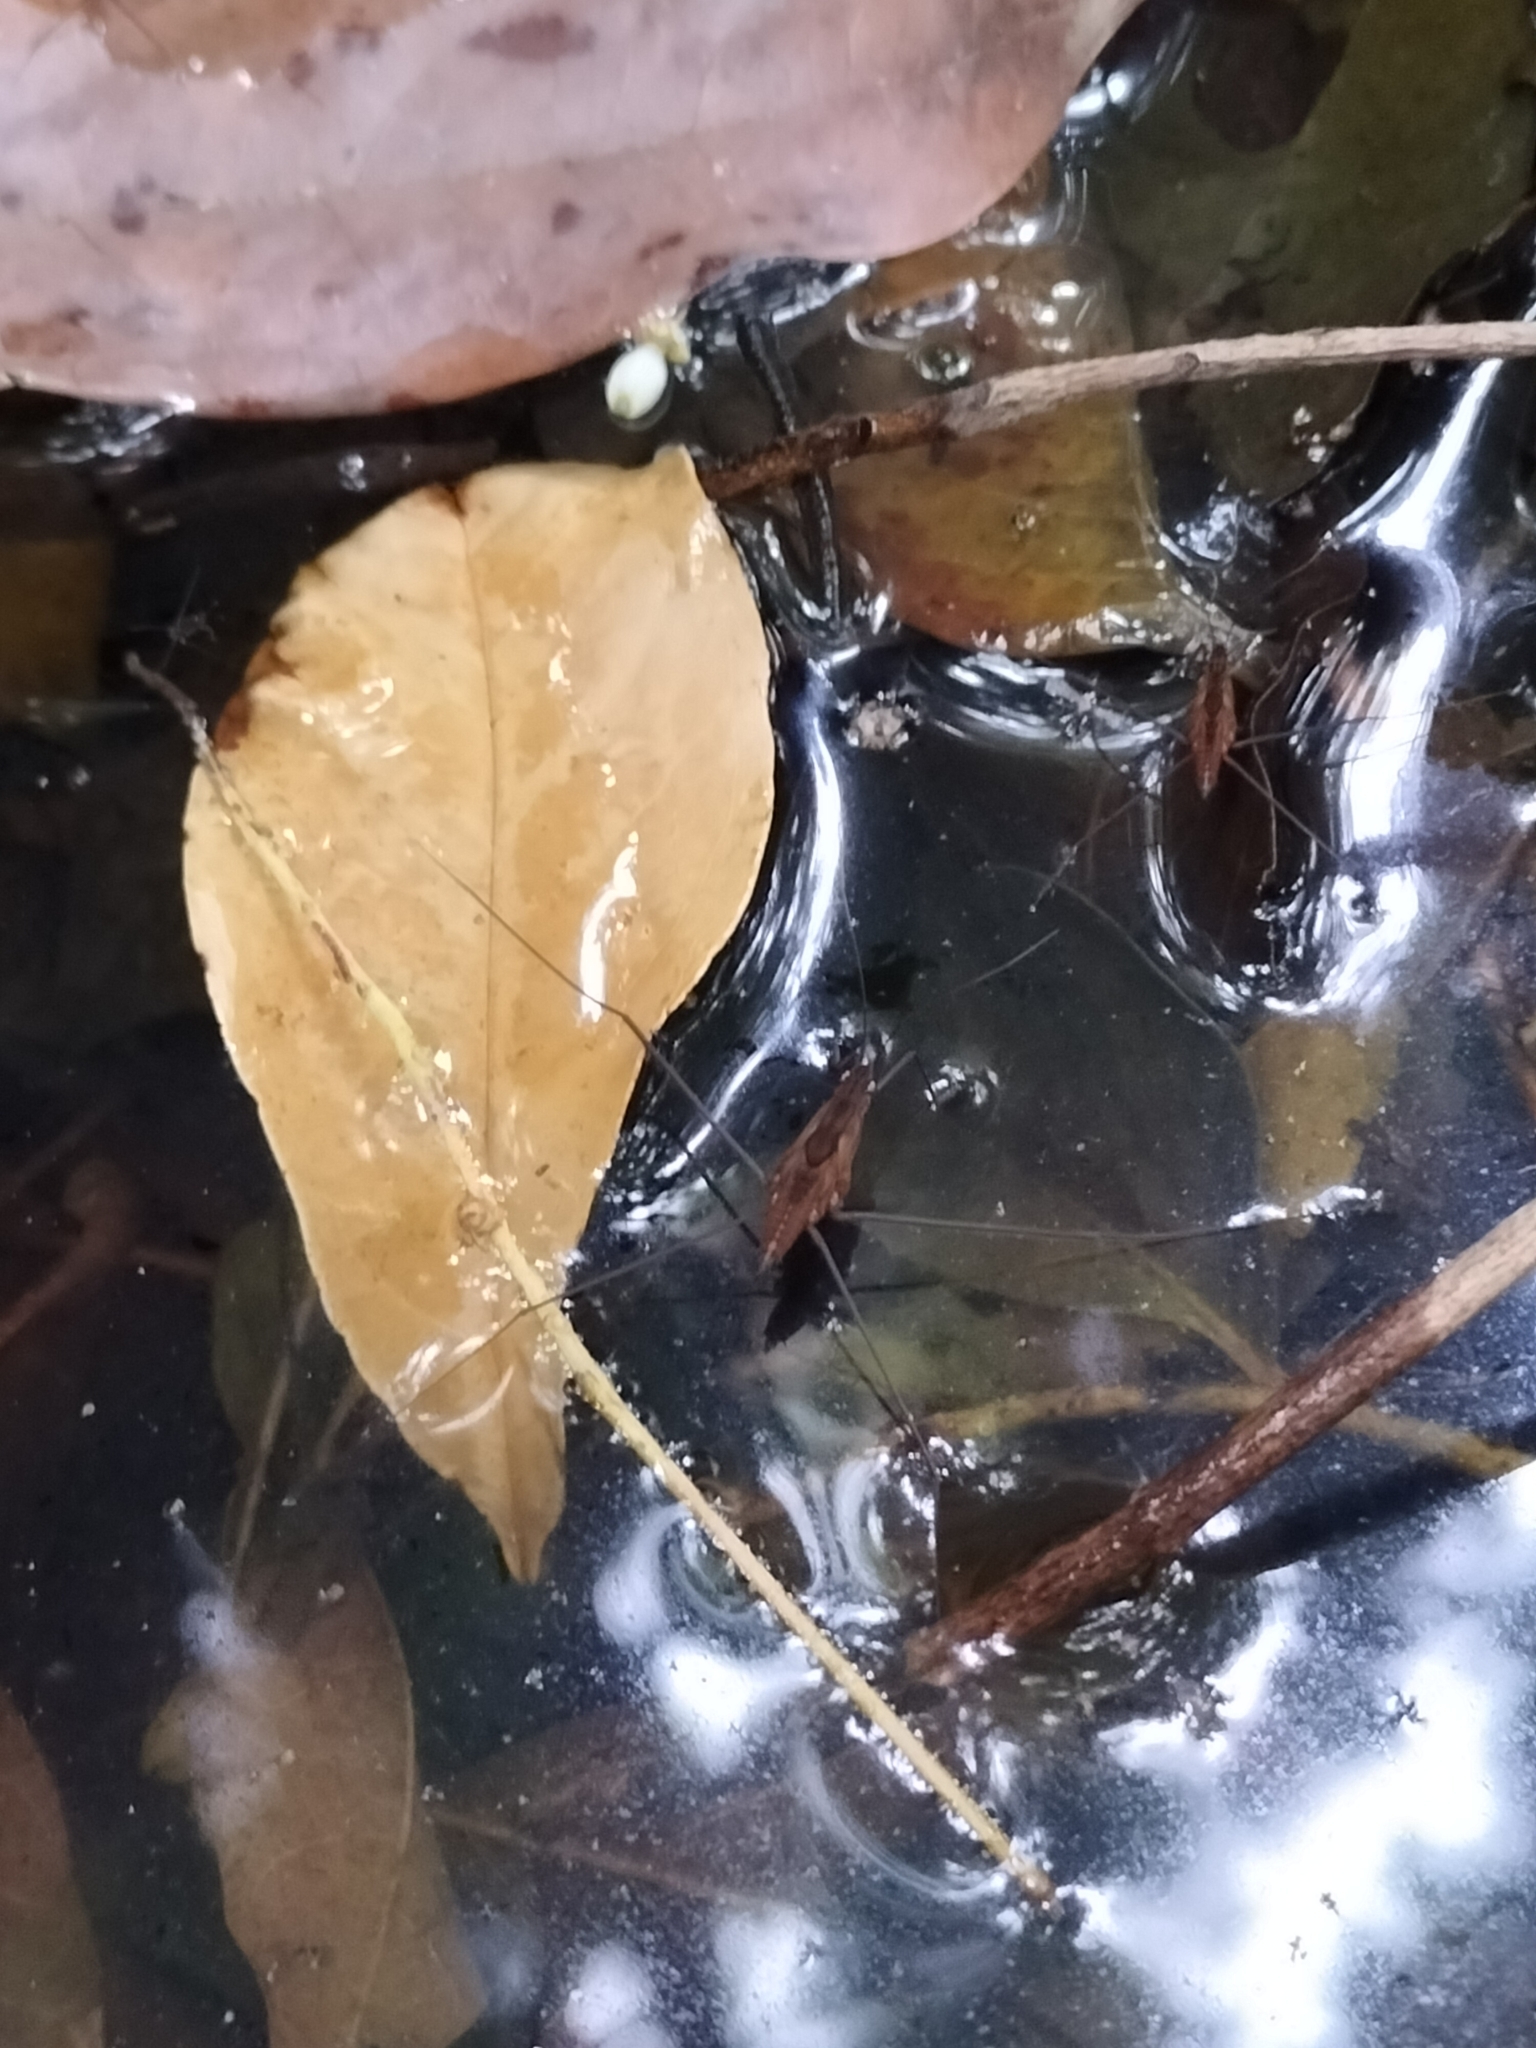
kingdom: Animalia
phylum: Arthropoda
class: Insecta
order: Hemiptera
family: Gerridae
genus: Limnometra
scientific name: Limnometra
